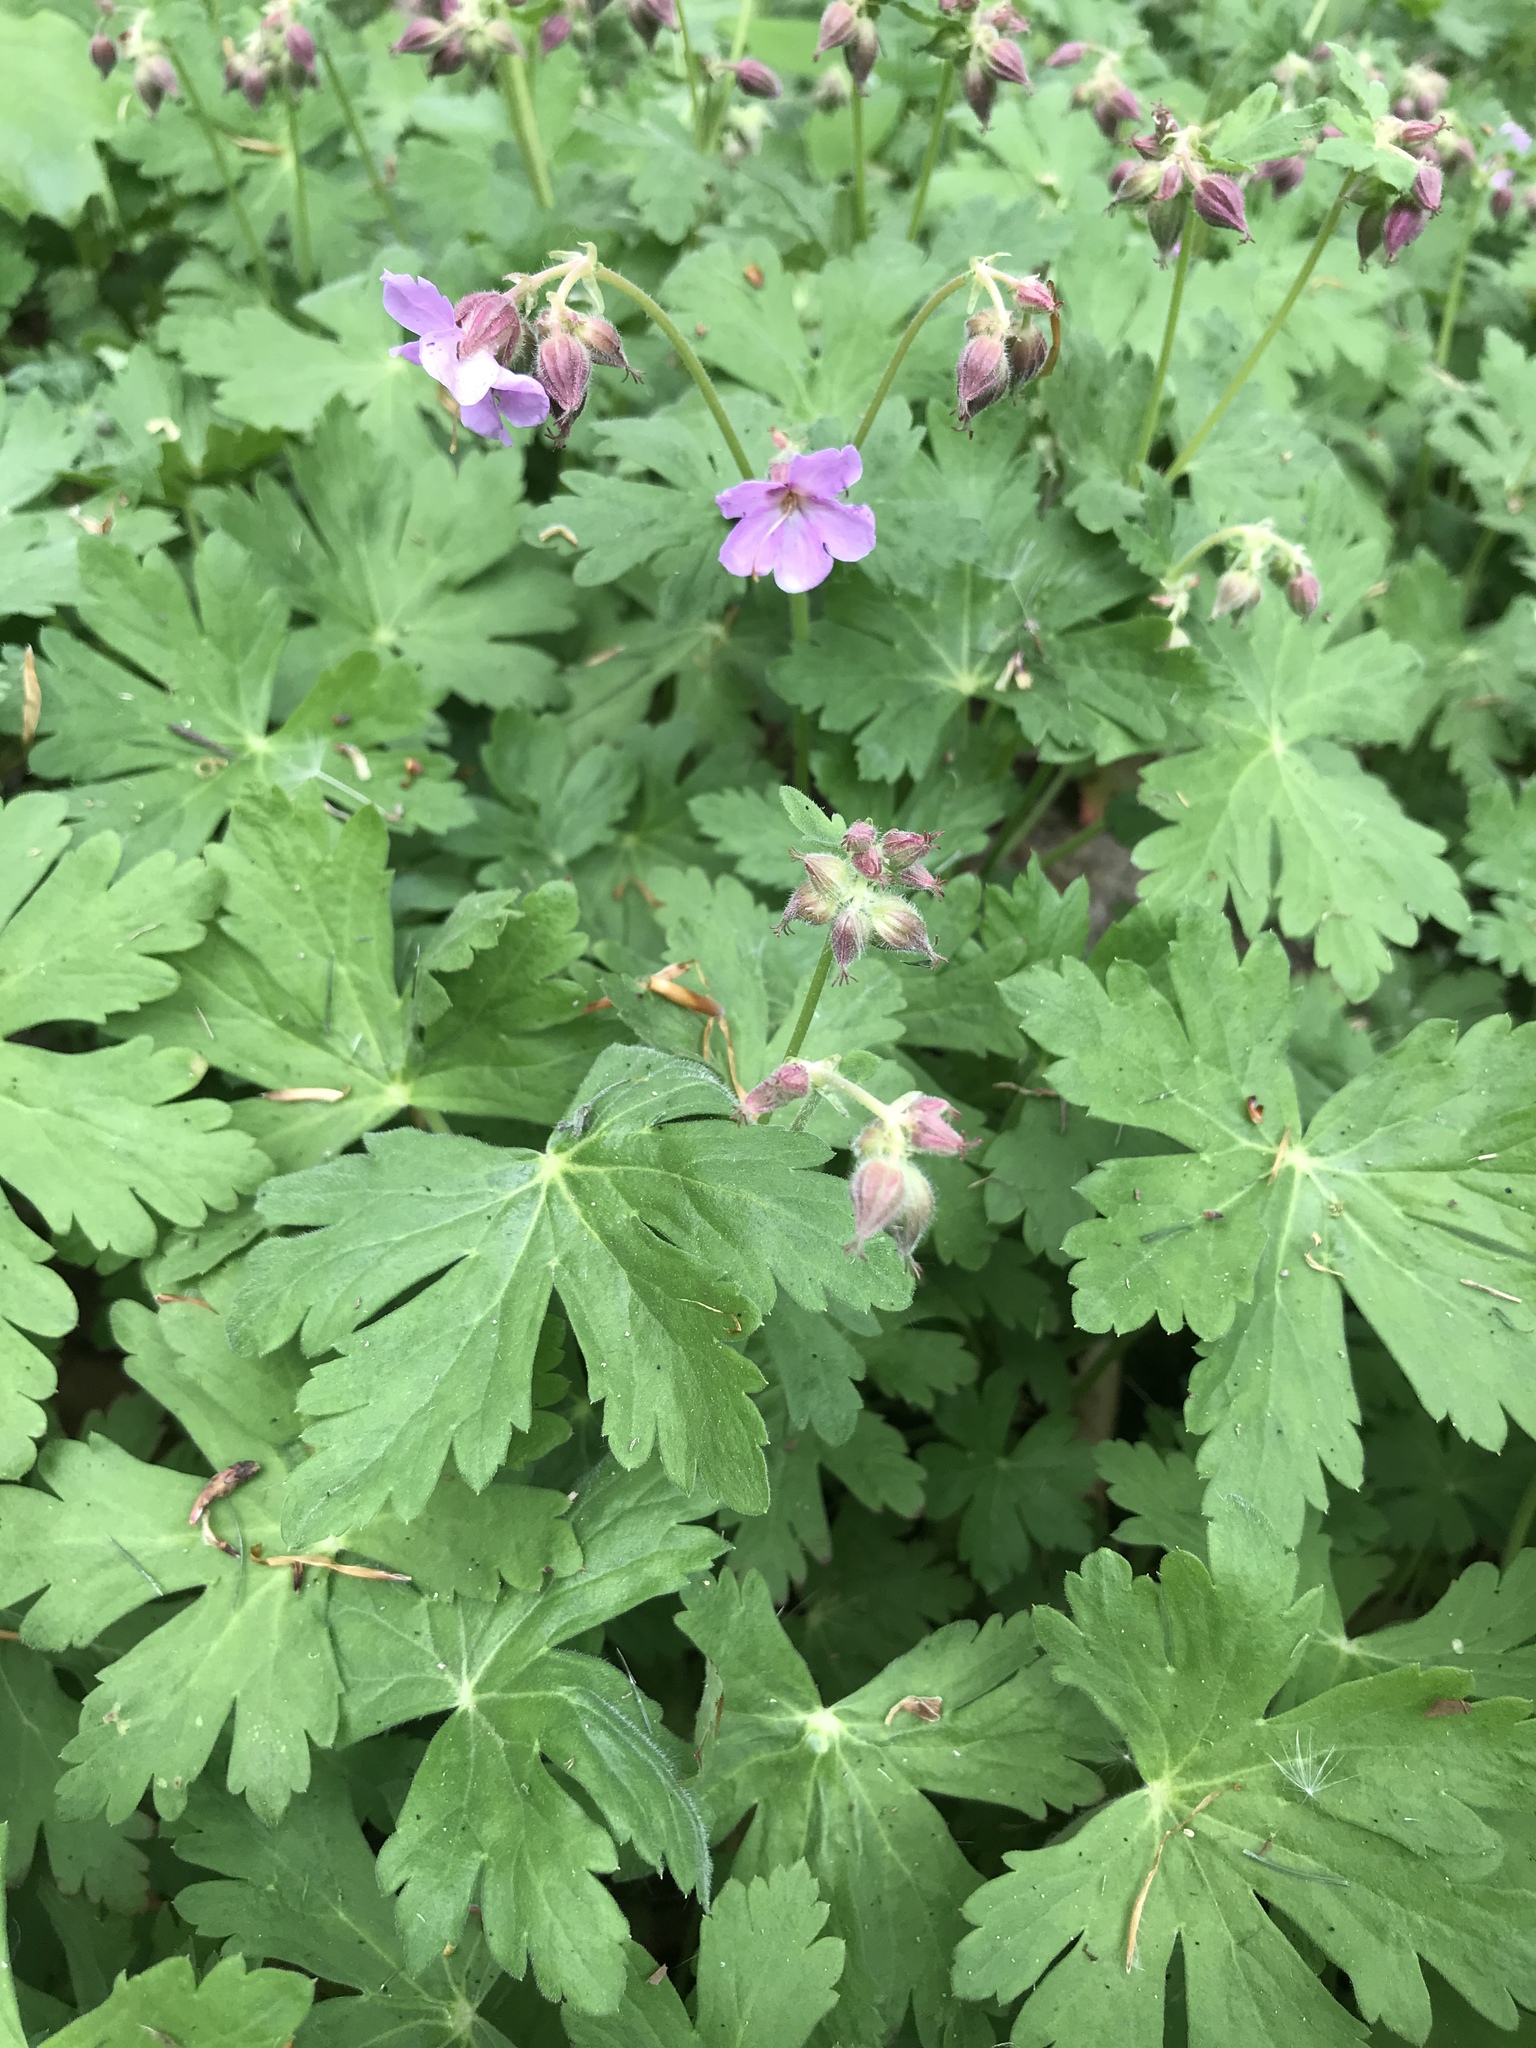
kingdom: Plantae
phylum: Tracheophyta
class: Magnoliopsida
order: Geraniales
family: Geraniaceae
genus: Geranium
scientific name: Geranium maculatum
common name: Spotted geranium
